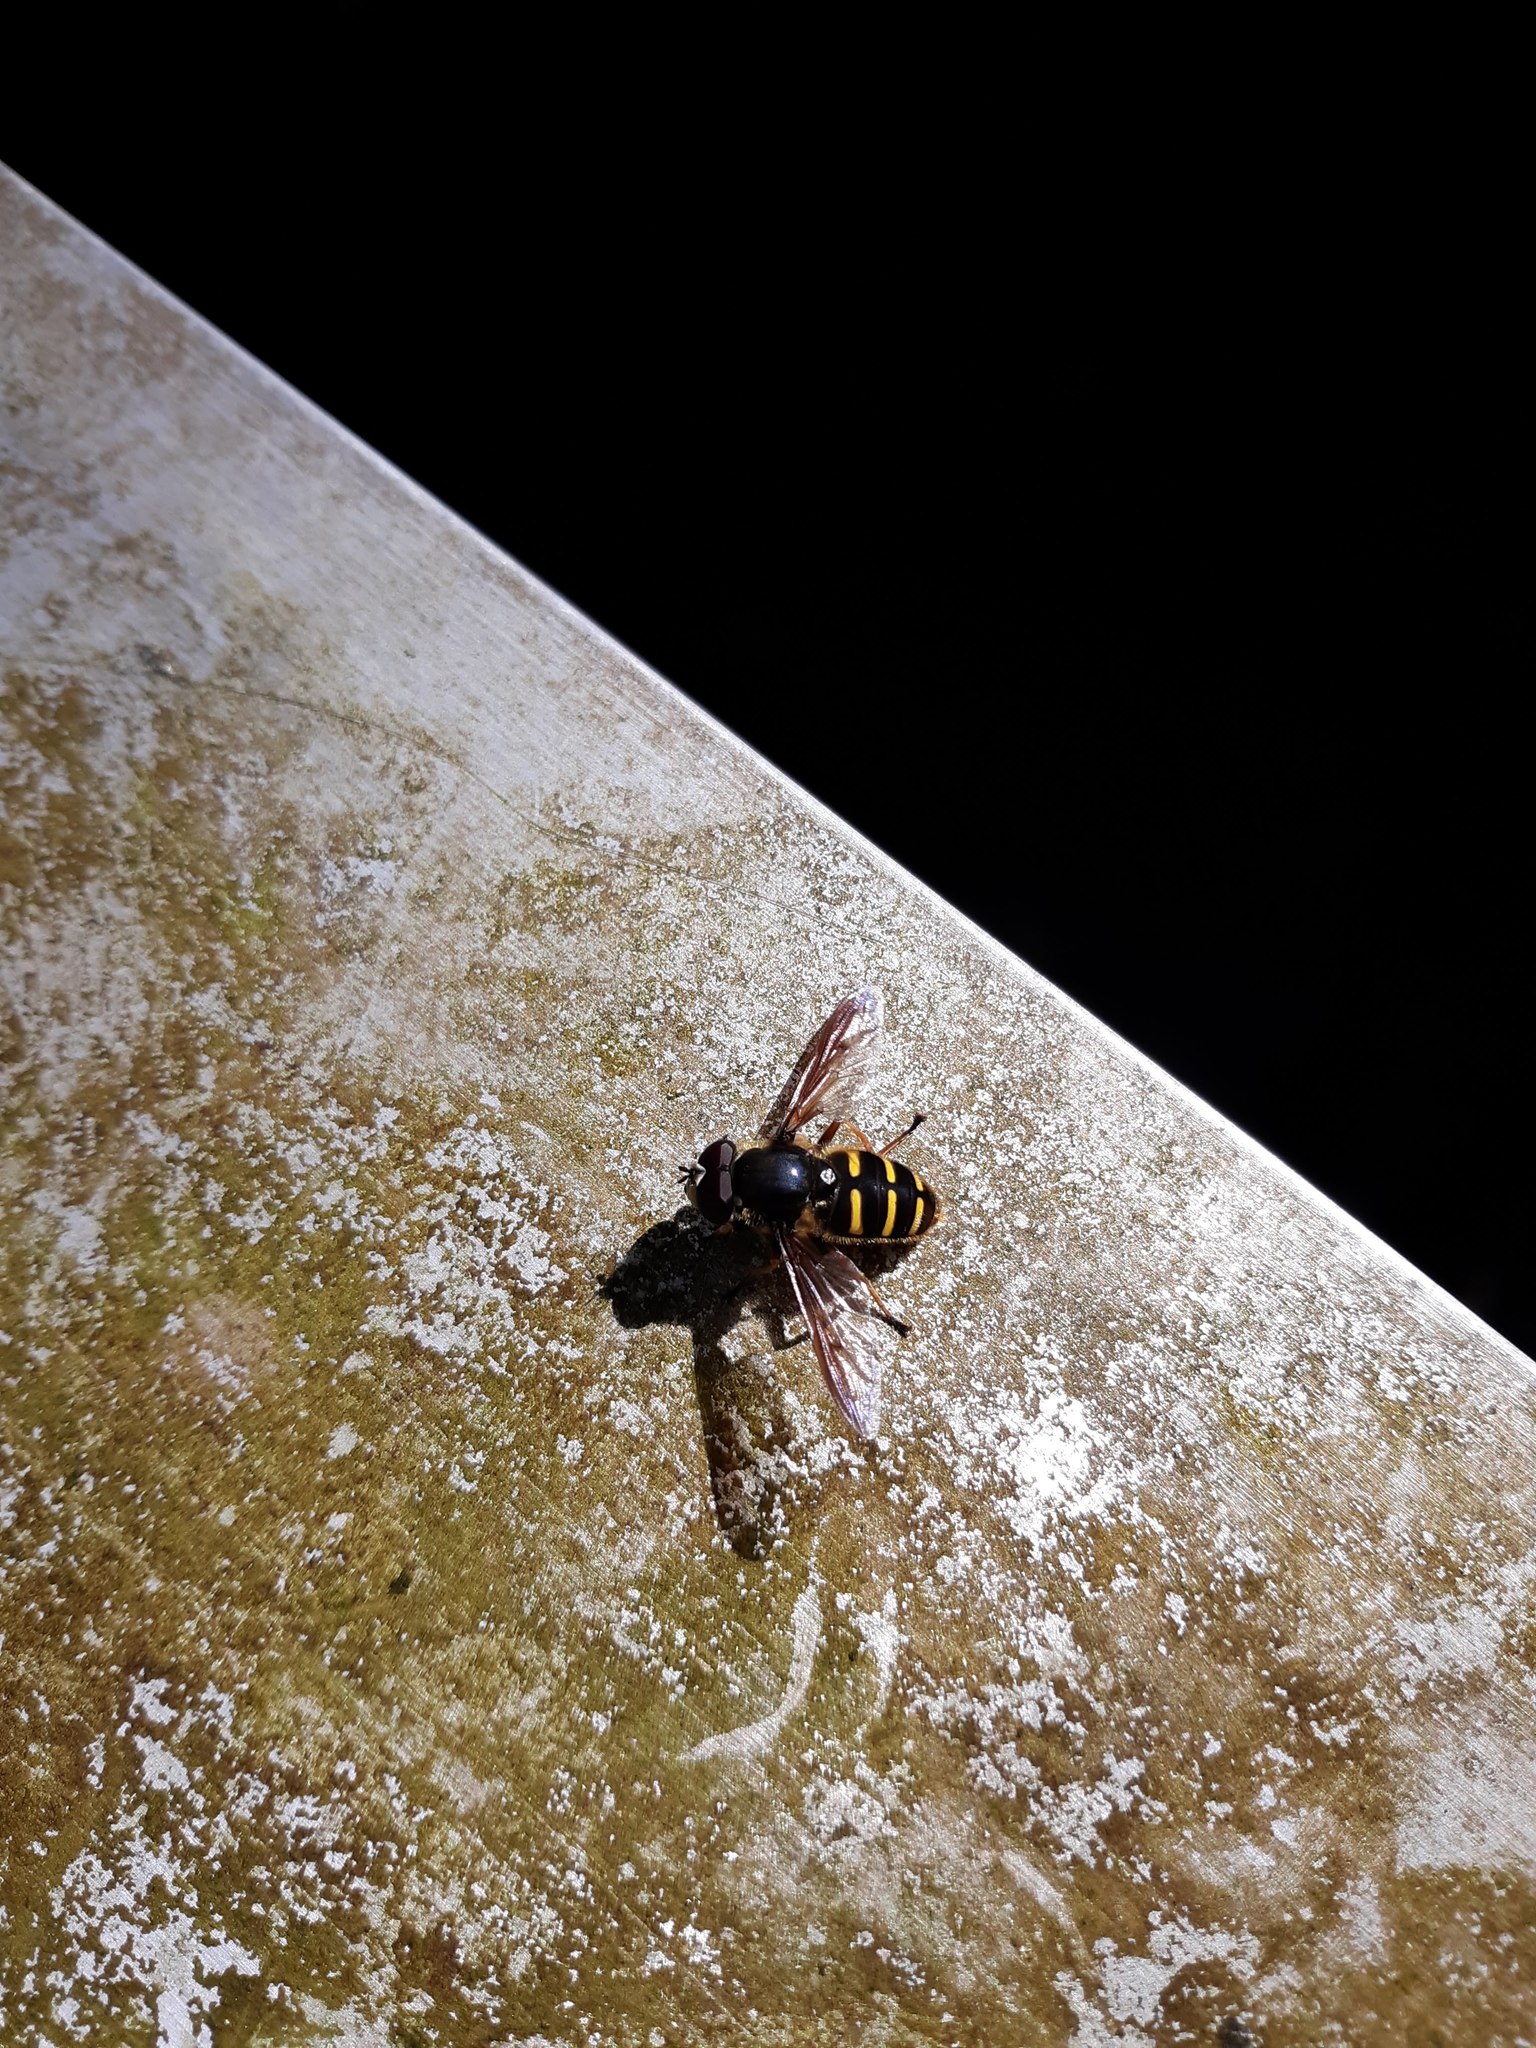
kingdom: Animalia
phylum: Arthropoda
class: Insecta
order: Diptera
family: Syrphidae
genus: Sericomyia
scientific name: Sericomyia chalcopyga
